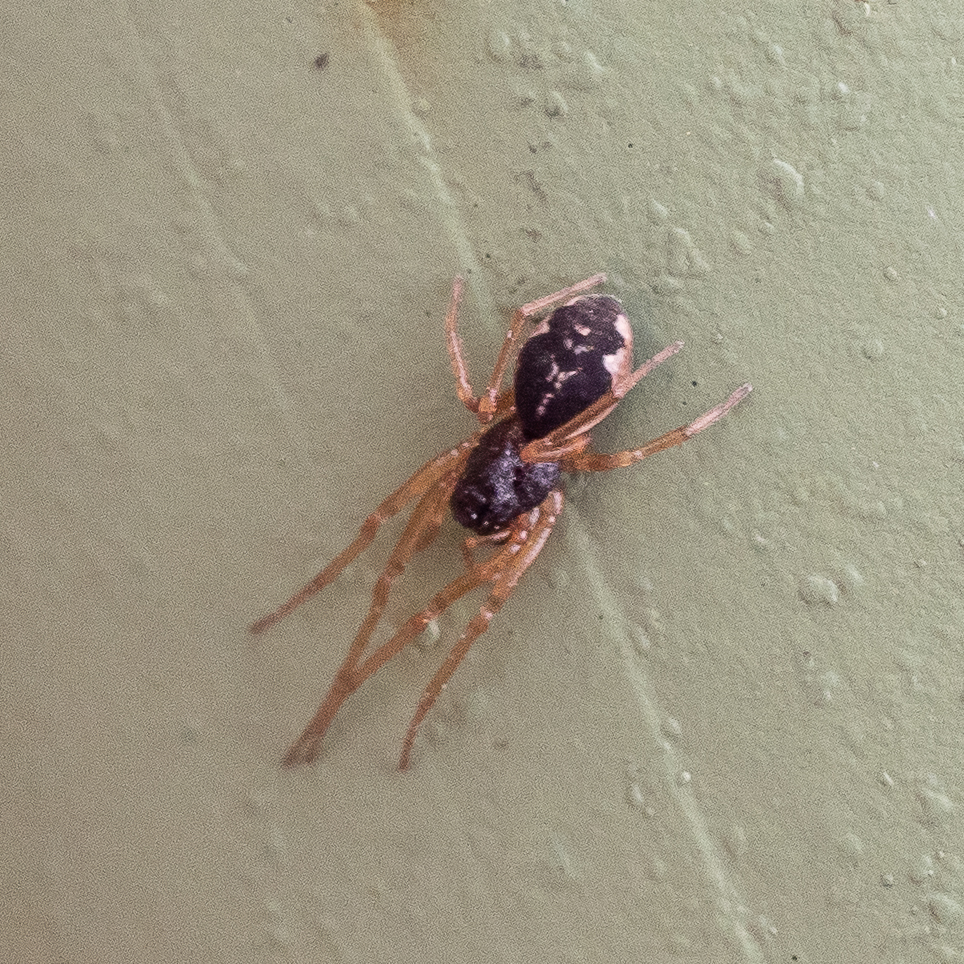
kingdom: Animalia
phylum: Arthropoda
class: Arachnida
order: Araneae
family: Tetragnathidae
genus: Pachygnatha
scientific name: Pachygnatha degeeri
